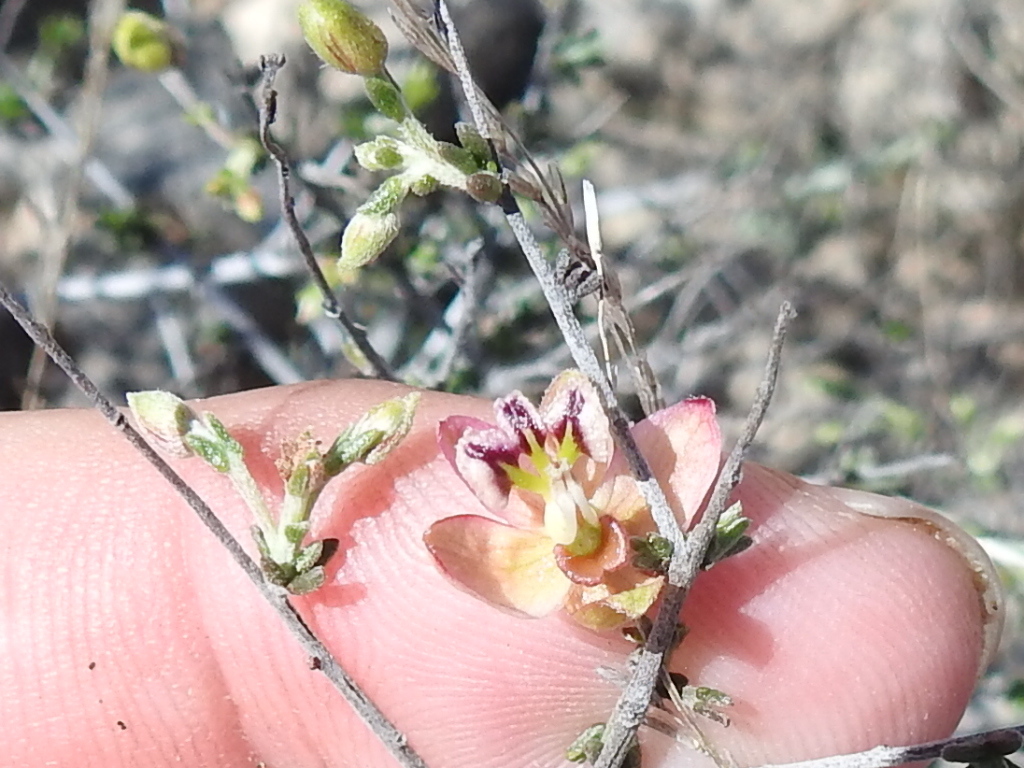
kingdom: Plantae
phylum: Tracheophyta
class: Magnoliopsida
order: Zygophyllales
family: Krameriaceae
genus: Krameria
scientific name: Krameria ramosissima
